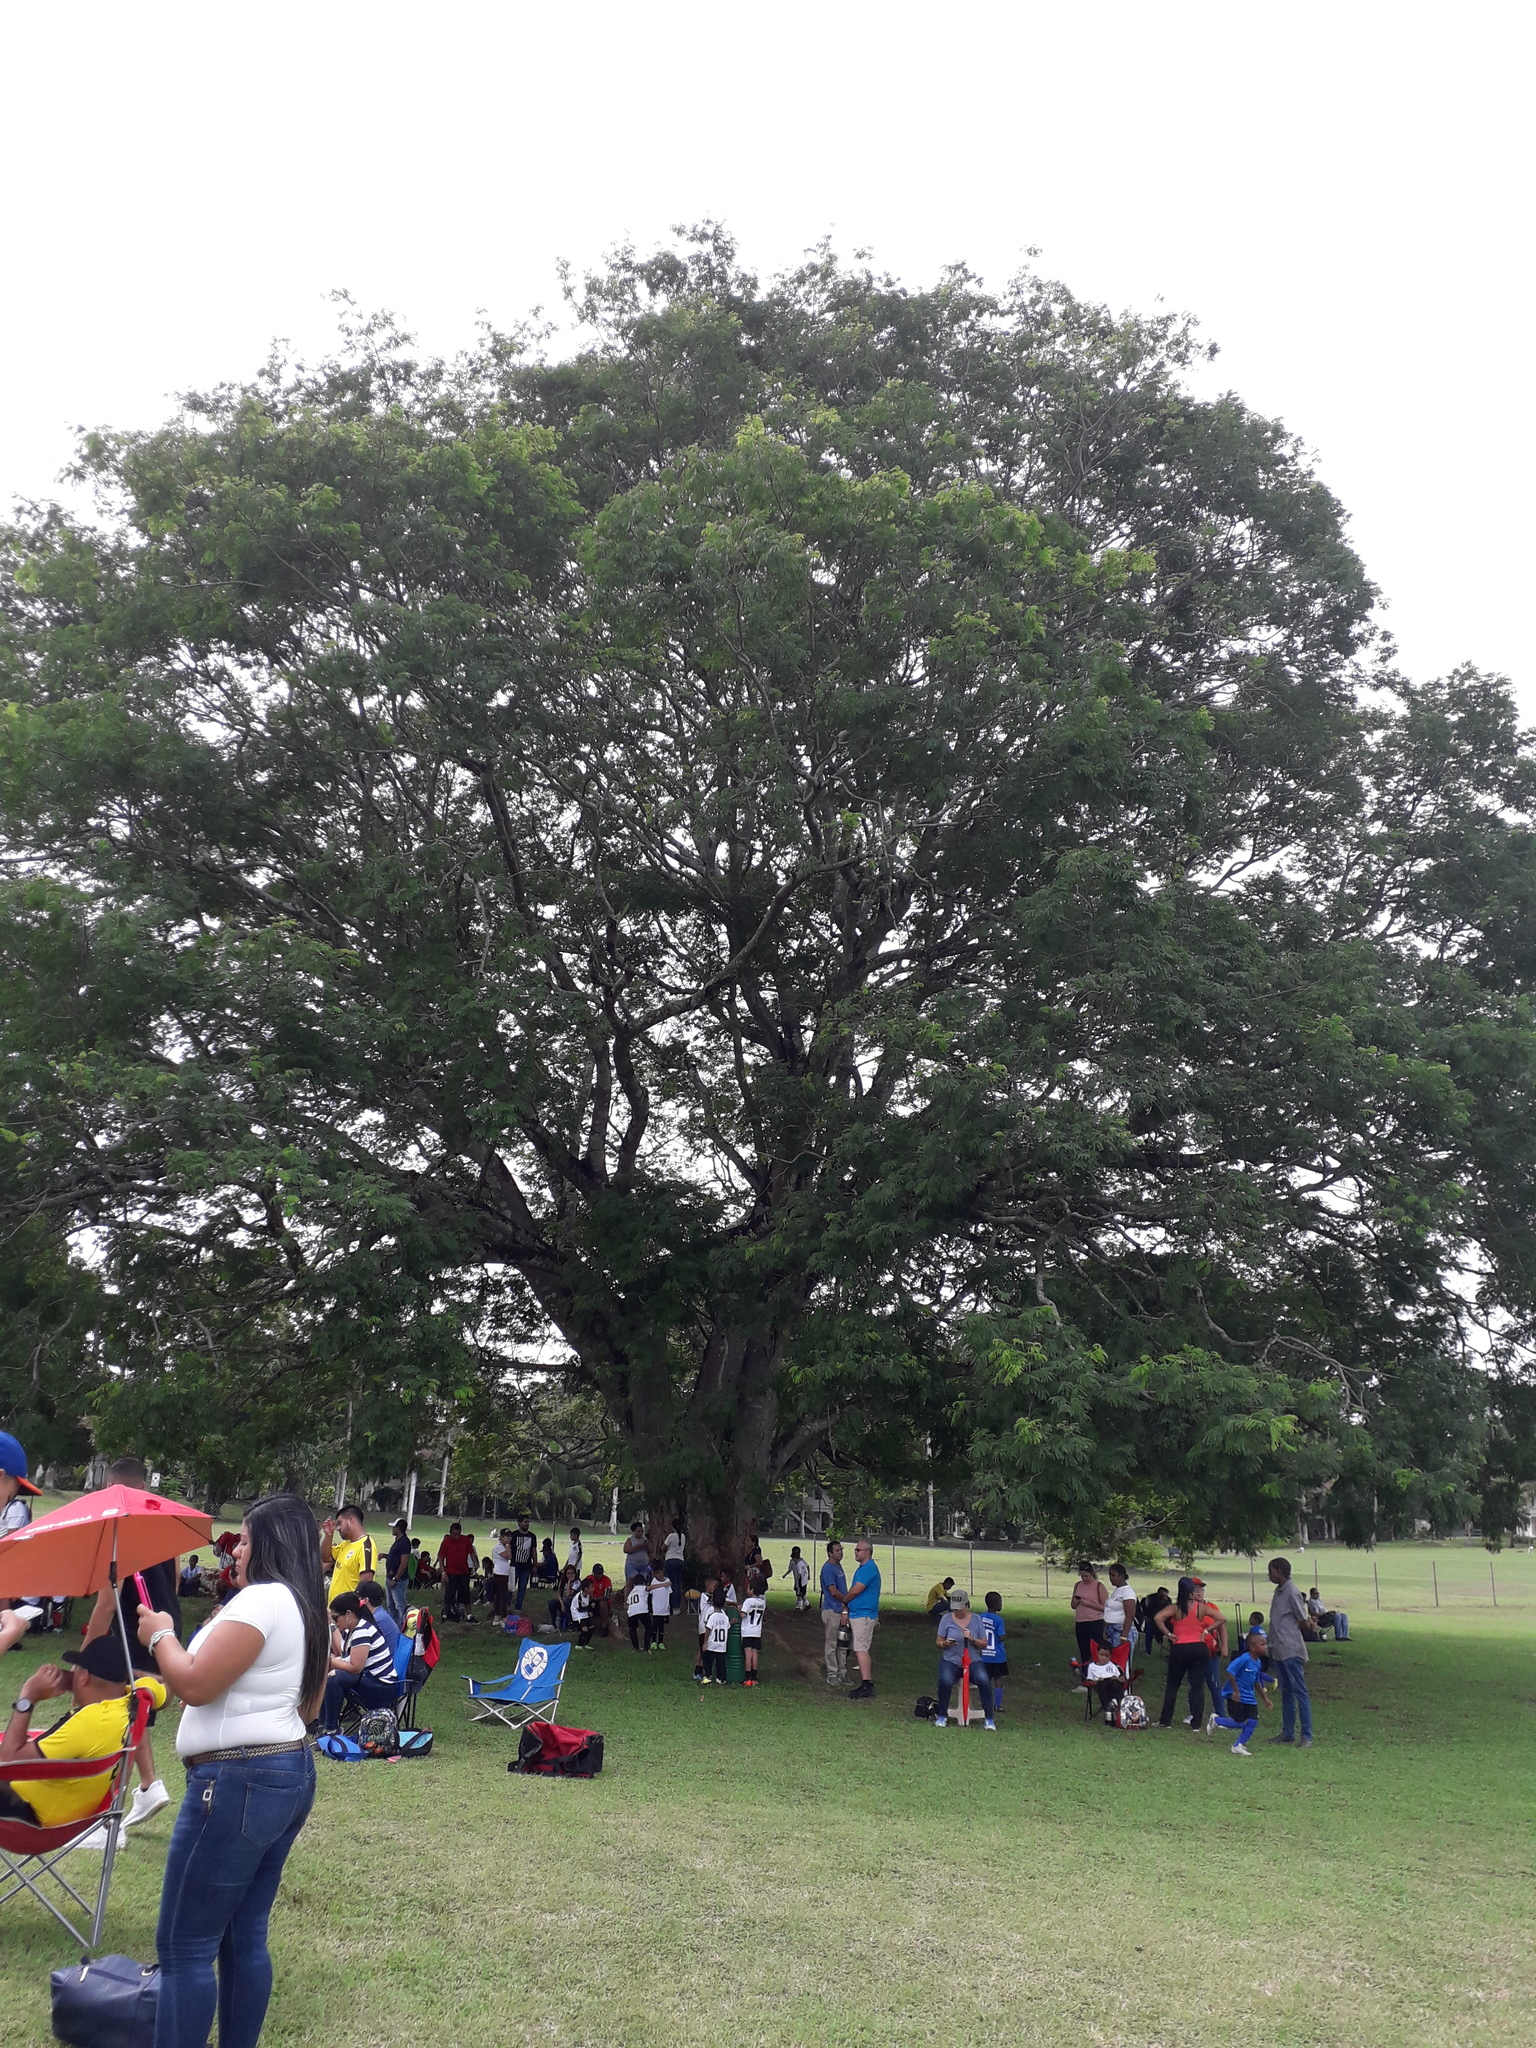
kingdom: Plantae
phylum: Tracheophyta
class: Magnoliopsida
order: Fabales
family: Fabaceae
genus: Enterolobium
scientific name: Enterolobium cyclocarpum
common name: Ear tree
